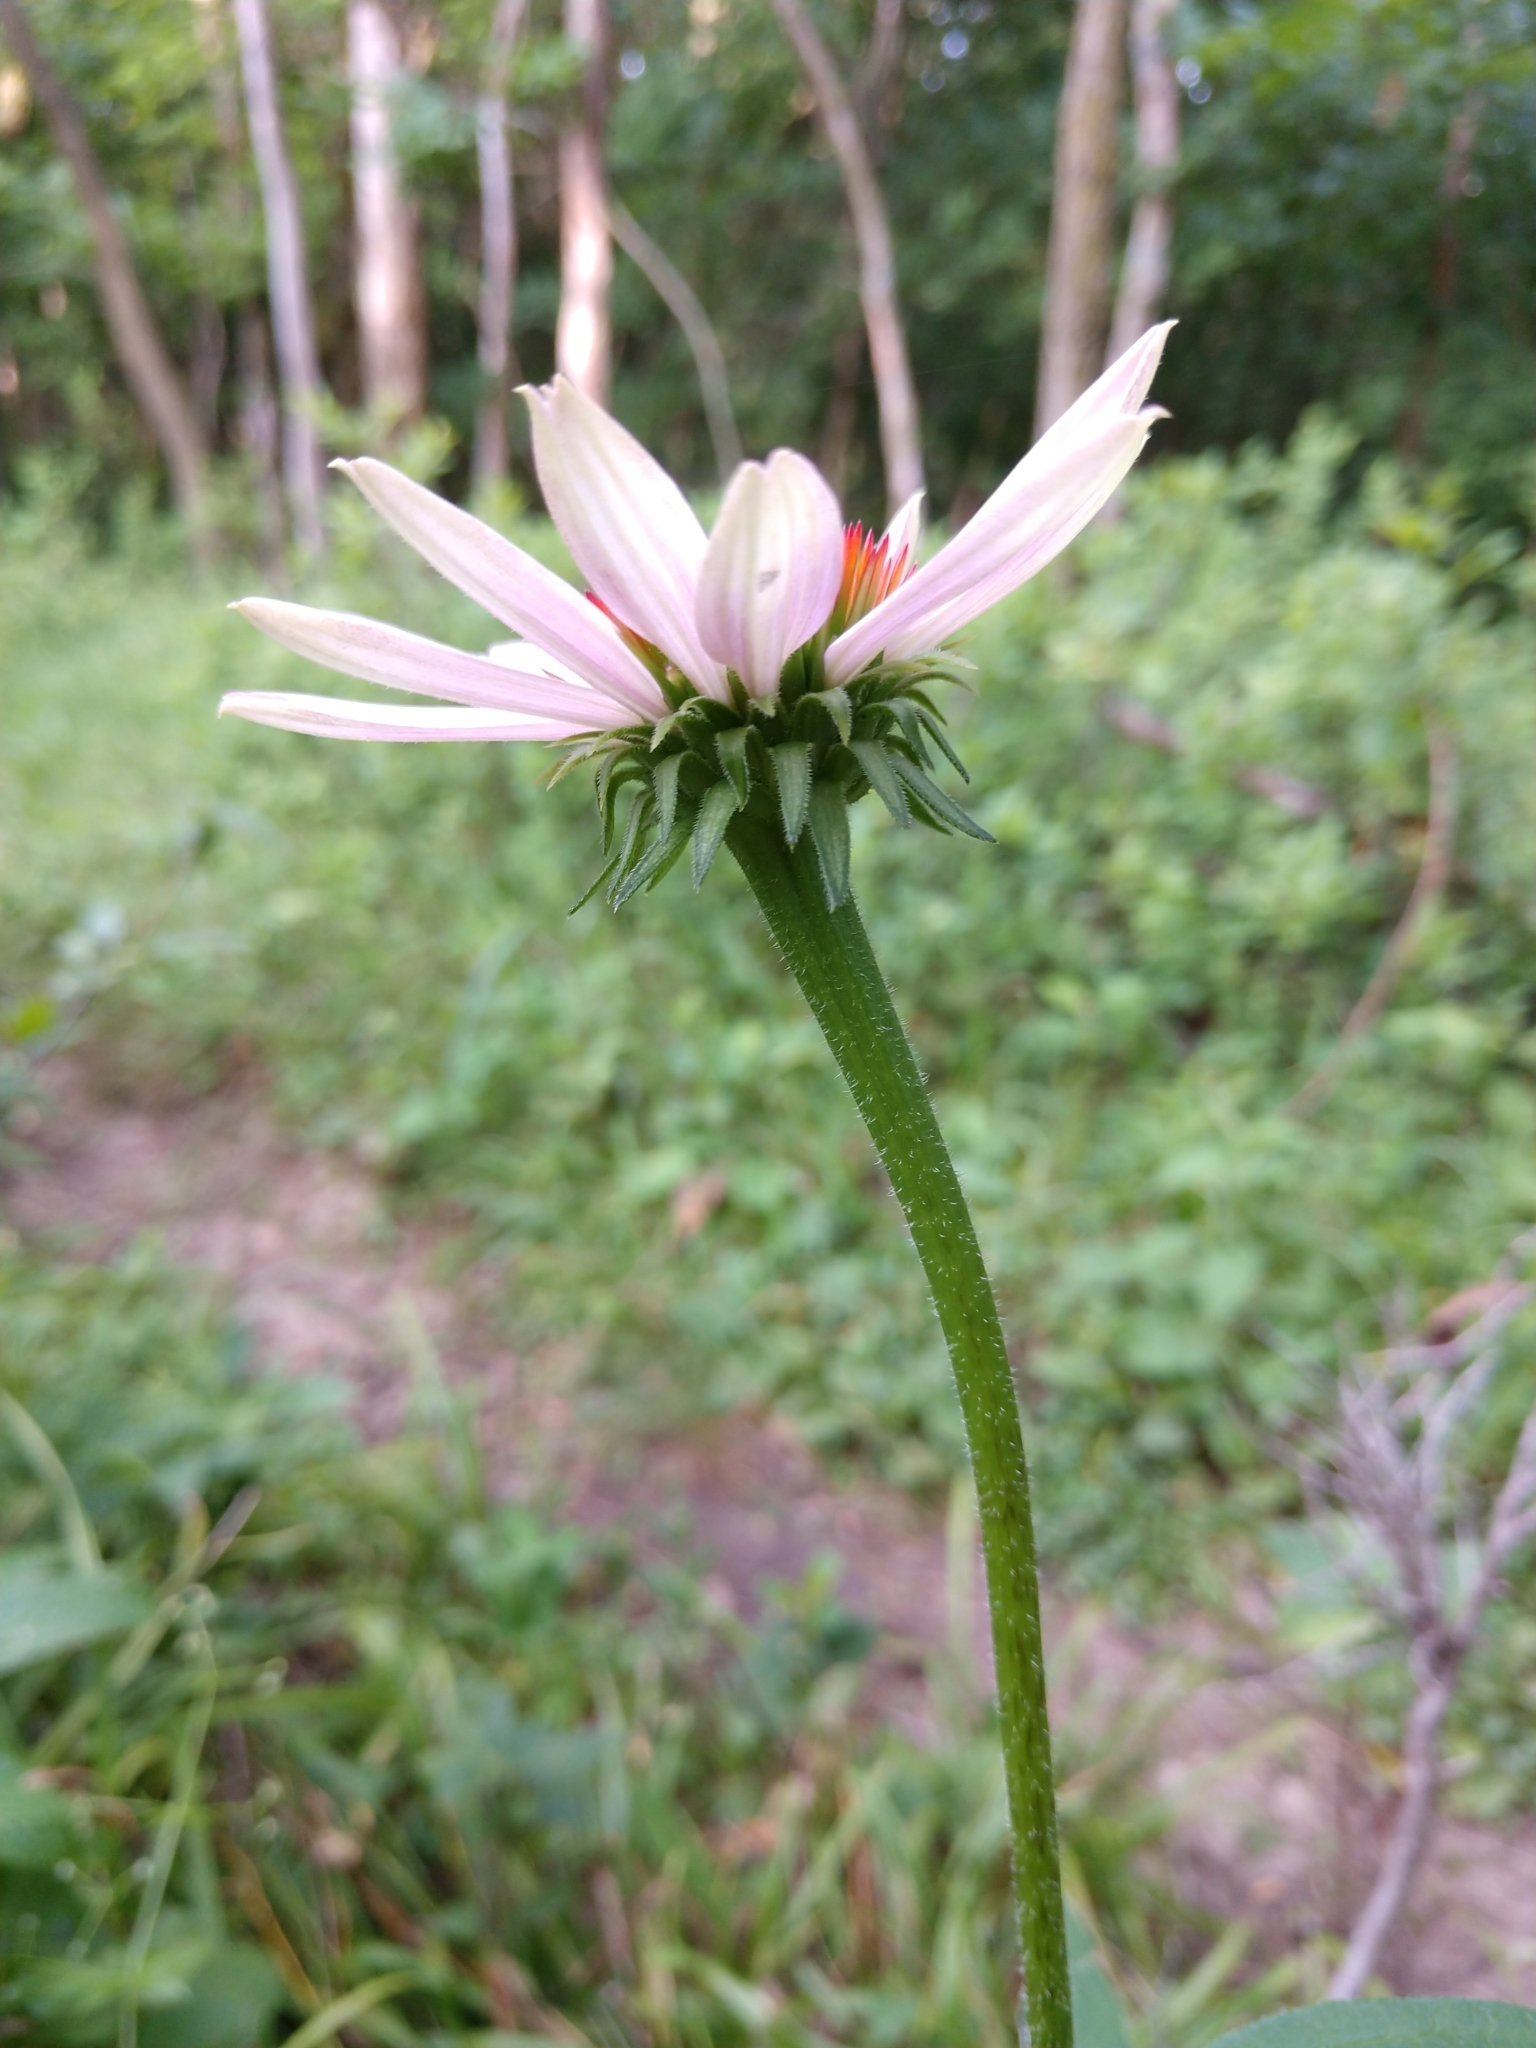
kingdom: Plantae
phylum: Tracheophyta
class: Magnoliopsida
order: Asterales
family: Asteraceae
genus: Echinacea
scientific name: Echinacea purpurea
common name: Broad-leaved purple coneflower
